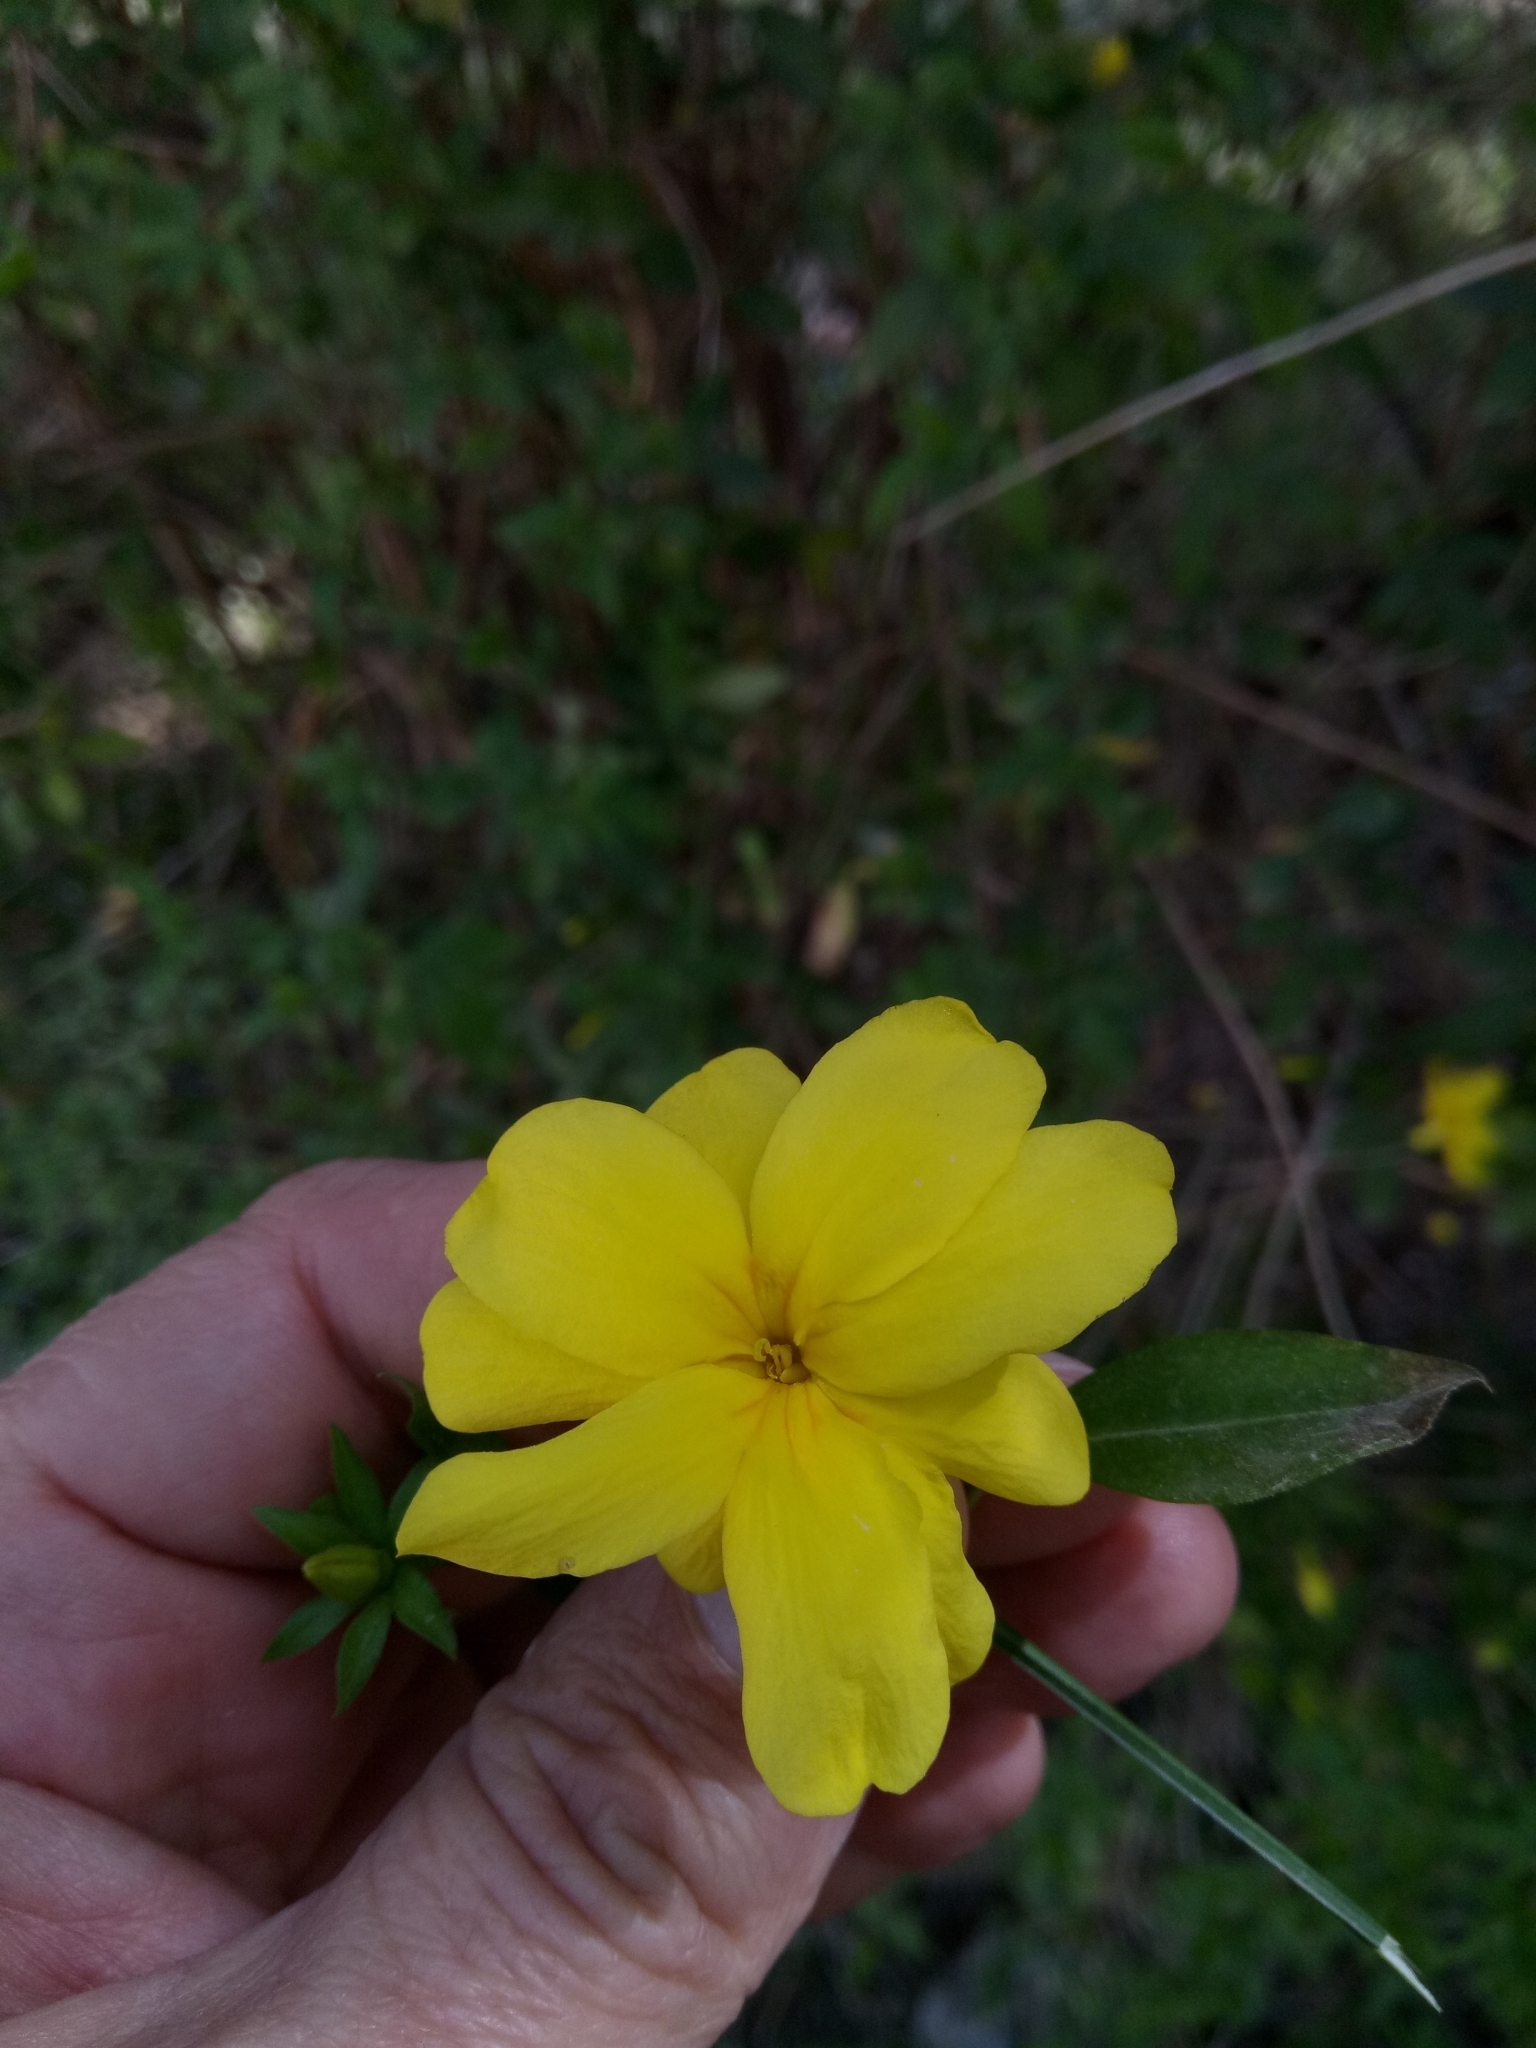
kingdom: Plantae
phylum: Tracheophyta
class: Magnoliopsida
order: Lamiales
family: Oleaceae
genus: Chrysojasminum
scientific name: Chrysojasminum fruticans
